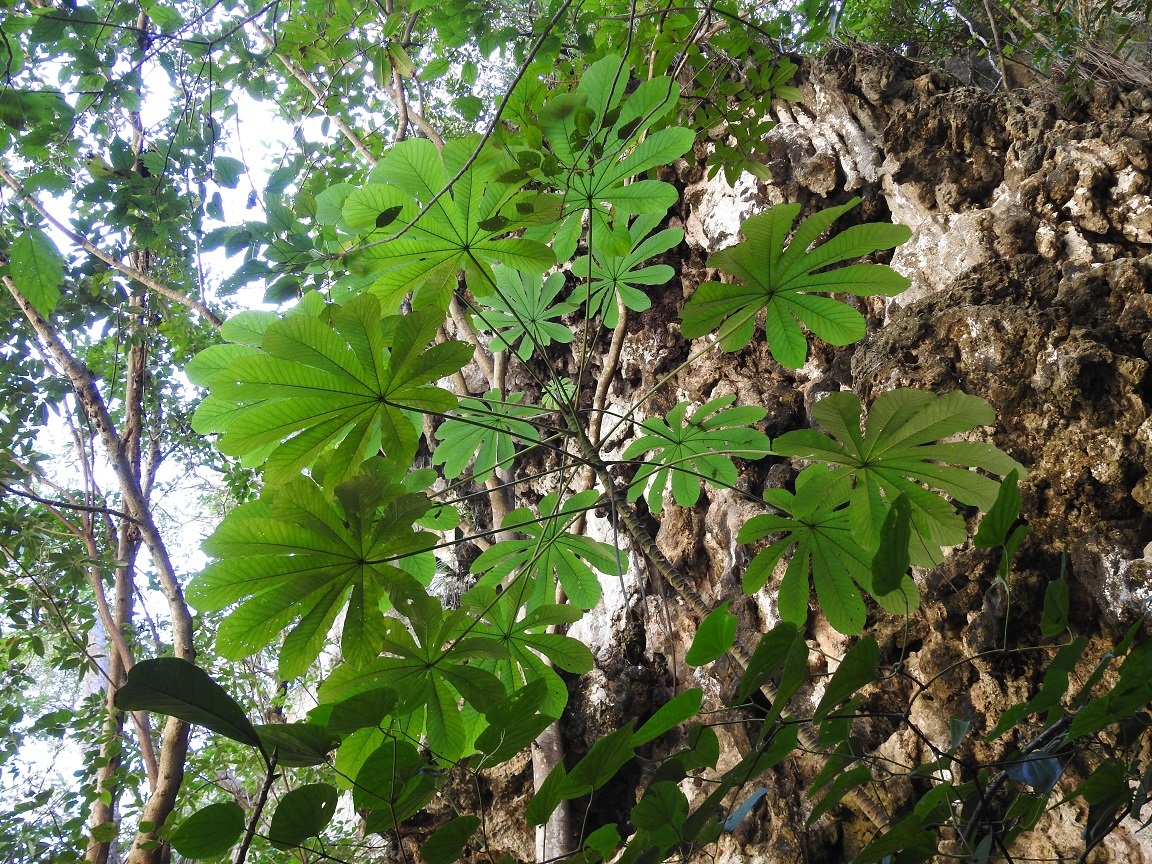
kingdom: Plantae
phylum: Tracheophyta
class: Magnoliopsida
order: Rosales
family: Urticaceae
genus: Cecropia
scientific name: Cecropia obtusifolia
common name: Trumpet tree
